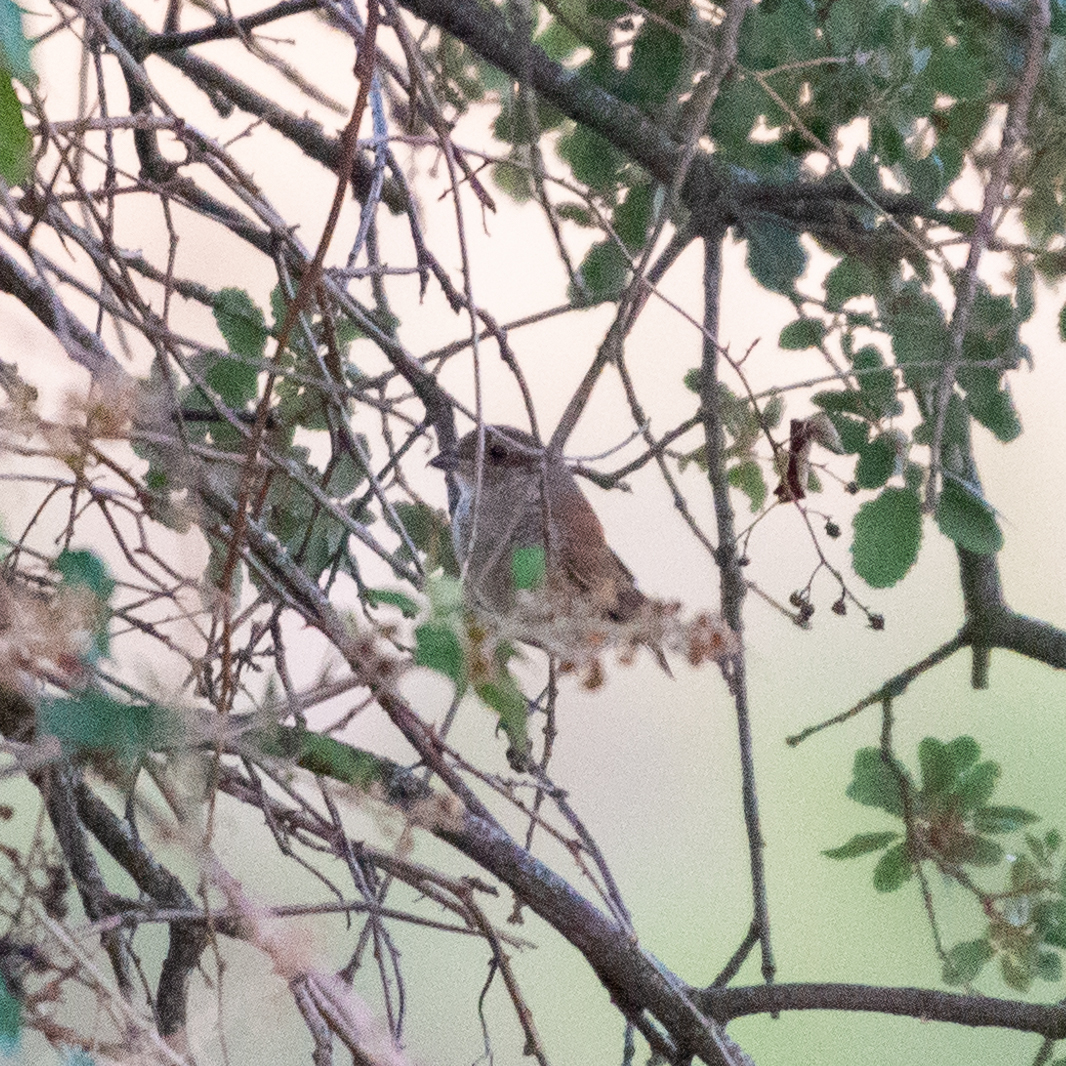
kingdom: Animalia
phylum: Chordata
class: Aves
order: Passeriformes
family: Laniidae
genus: Lanius
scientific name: Lanius collurio
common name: Red-backed shrike
